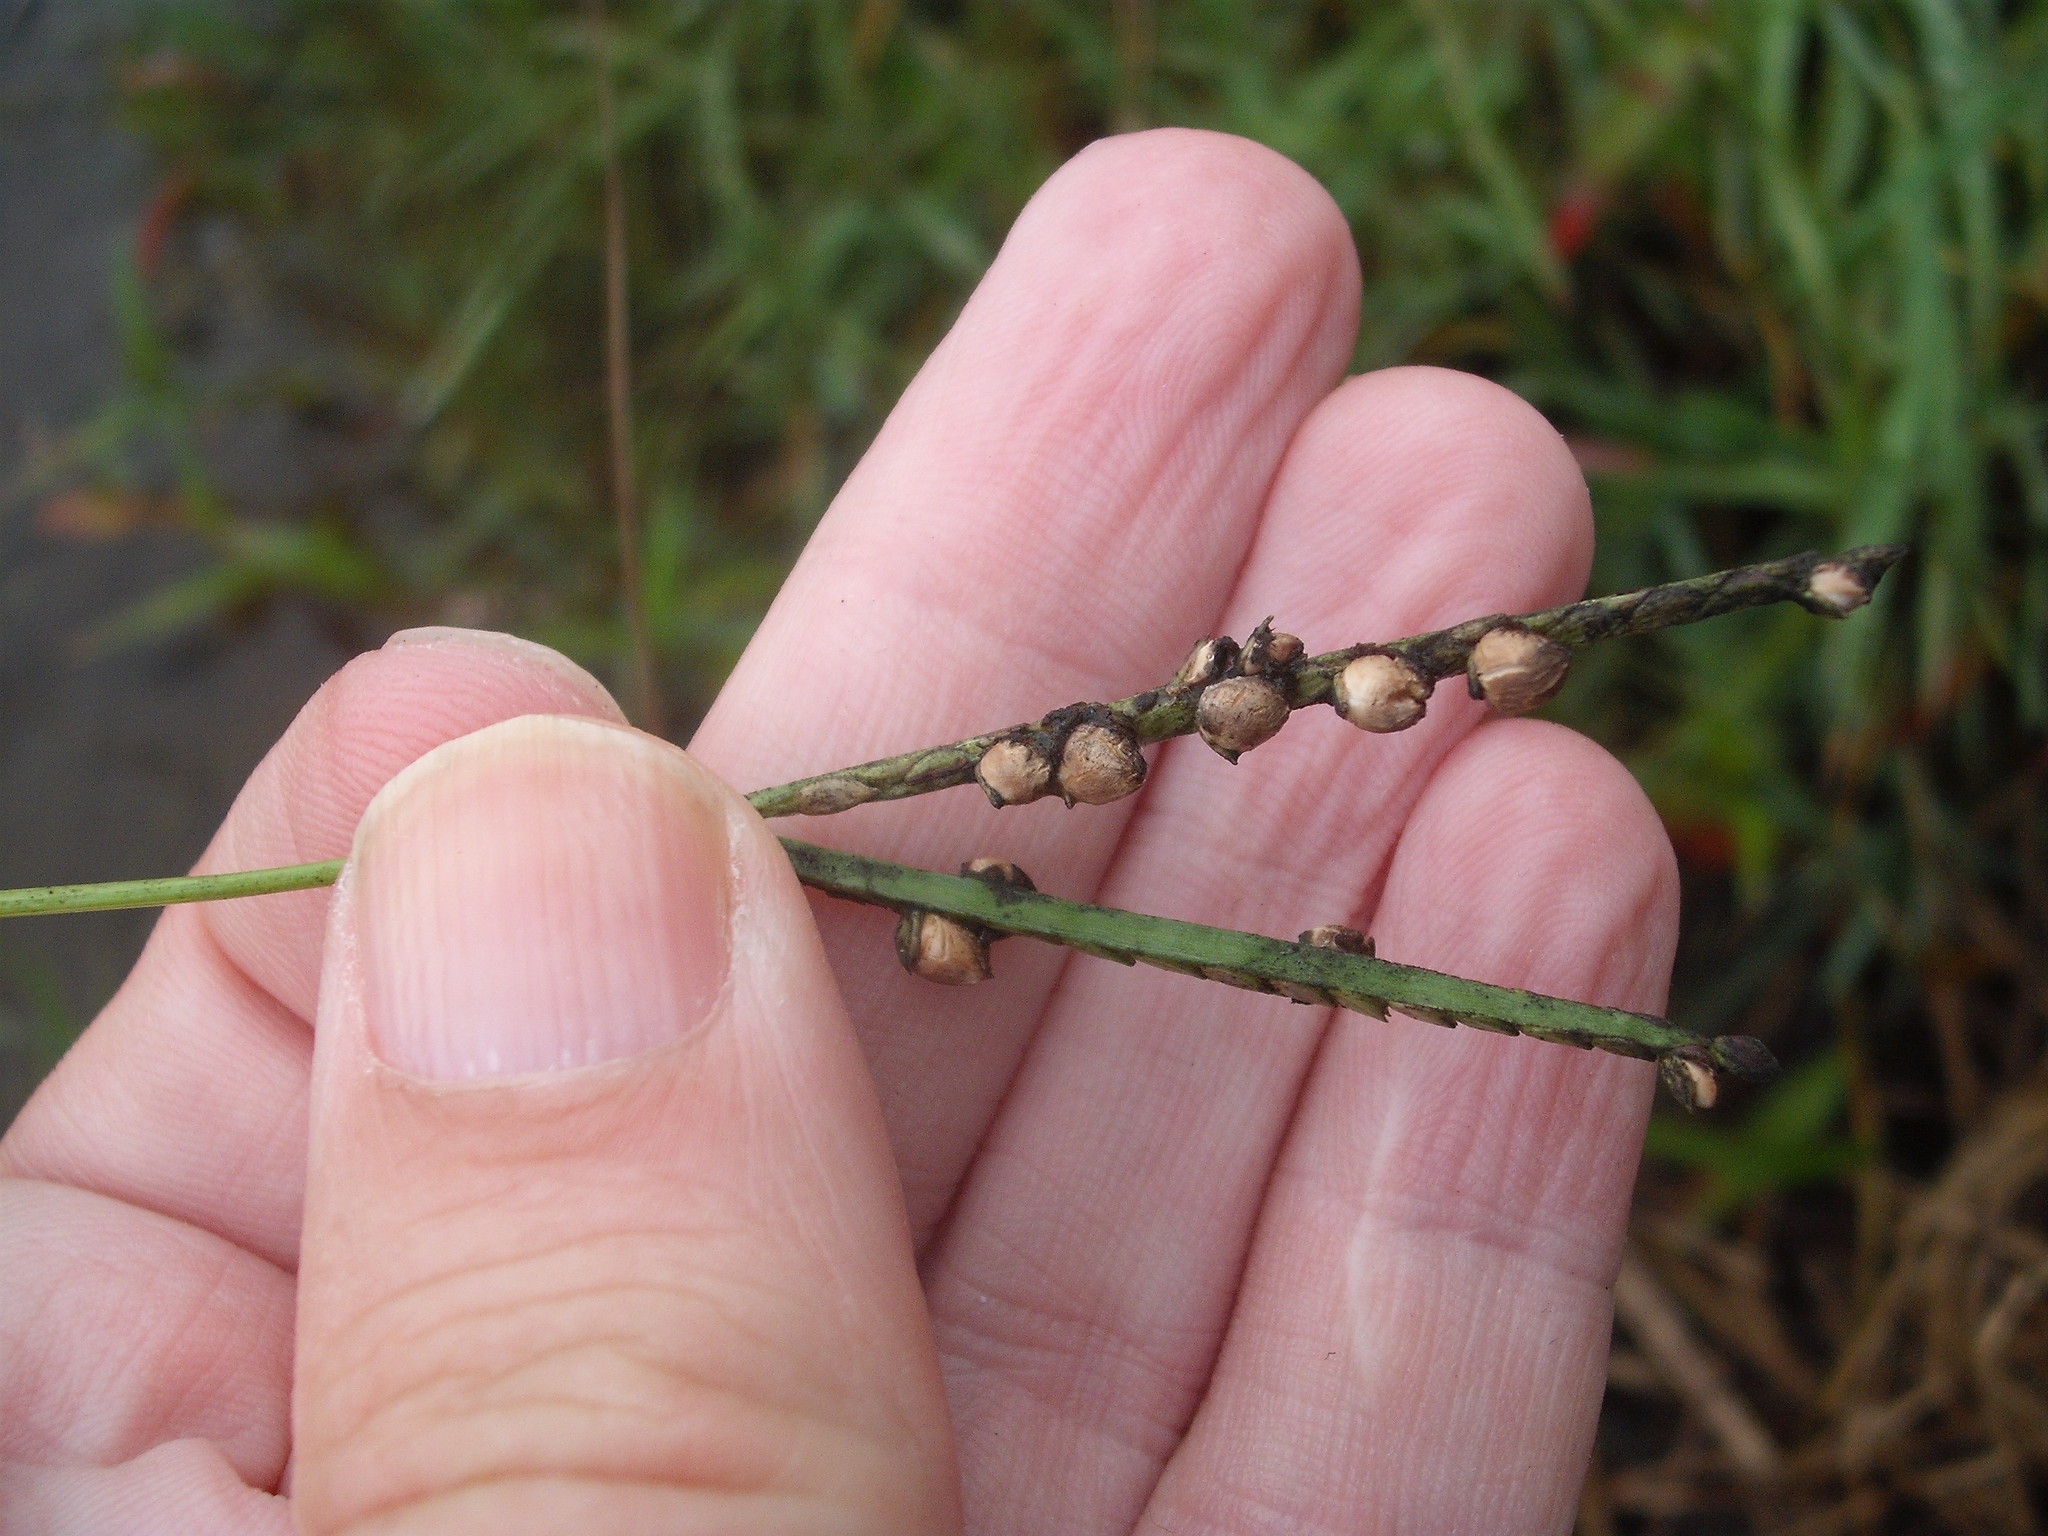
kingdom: Fungi
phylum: Ascomycota
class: Sordariomycetes
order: Hypocreales
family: Clavicipitaceae
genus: Claviceps
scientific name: Claviceps paspali
